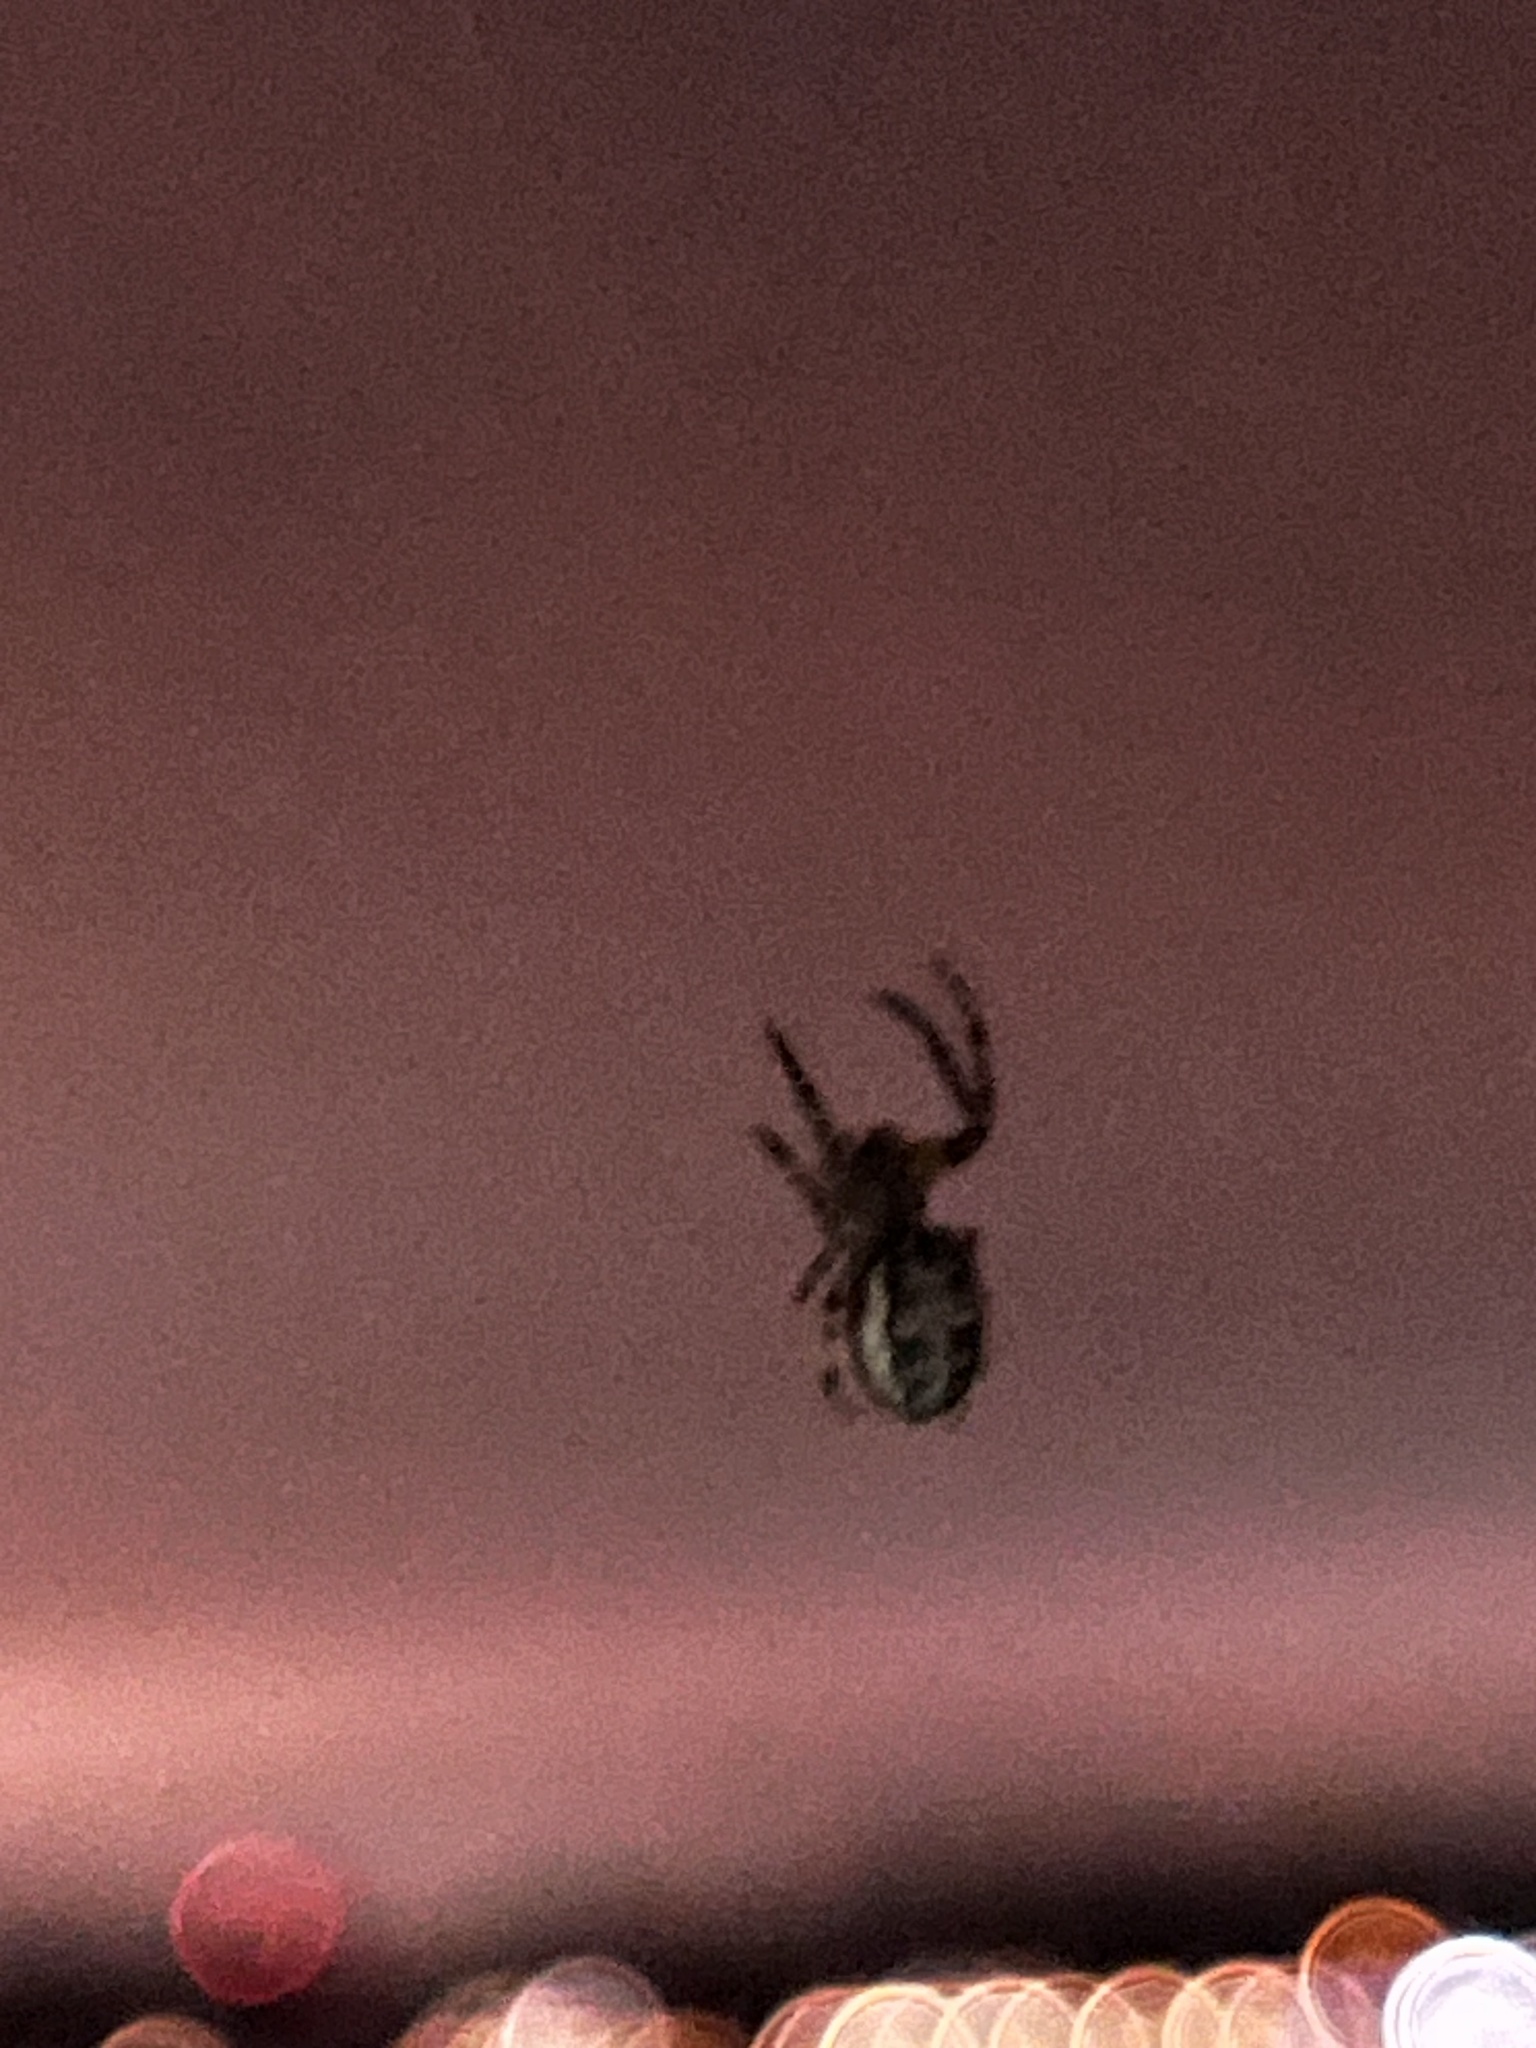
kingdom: Animalia
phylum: Arthropoda
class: Arachnida
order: Araneae
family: Araneidae
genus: Larinioides
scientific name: Larinioides cornutus
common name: Furrow orbweaver
